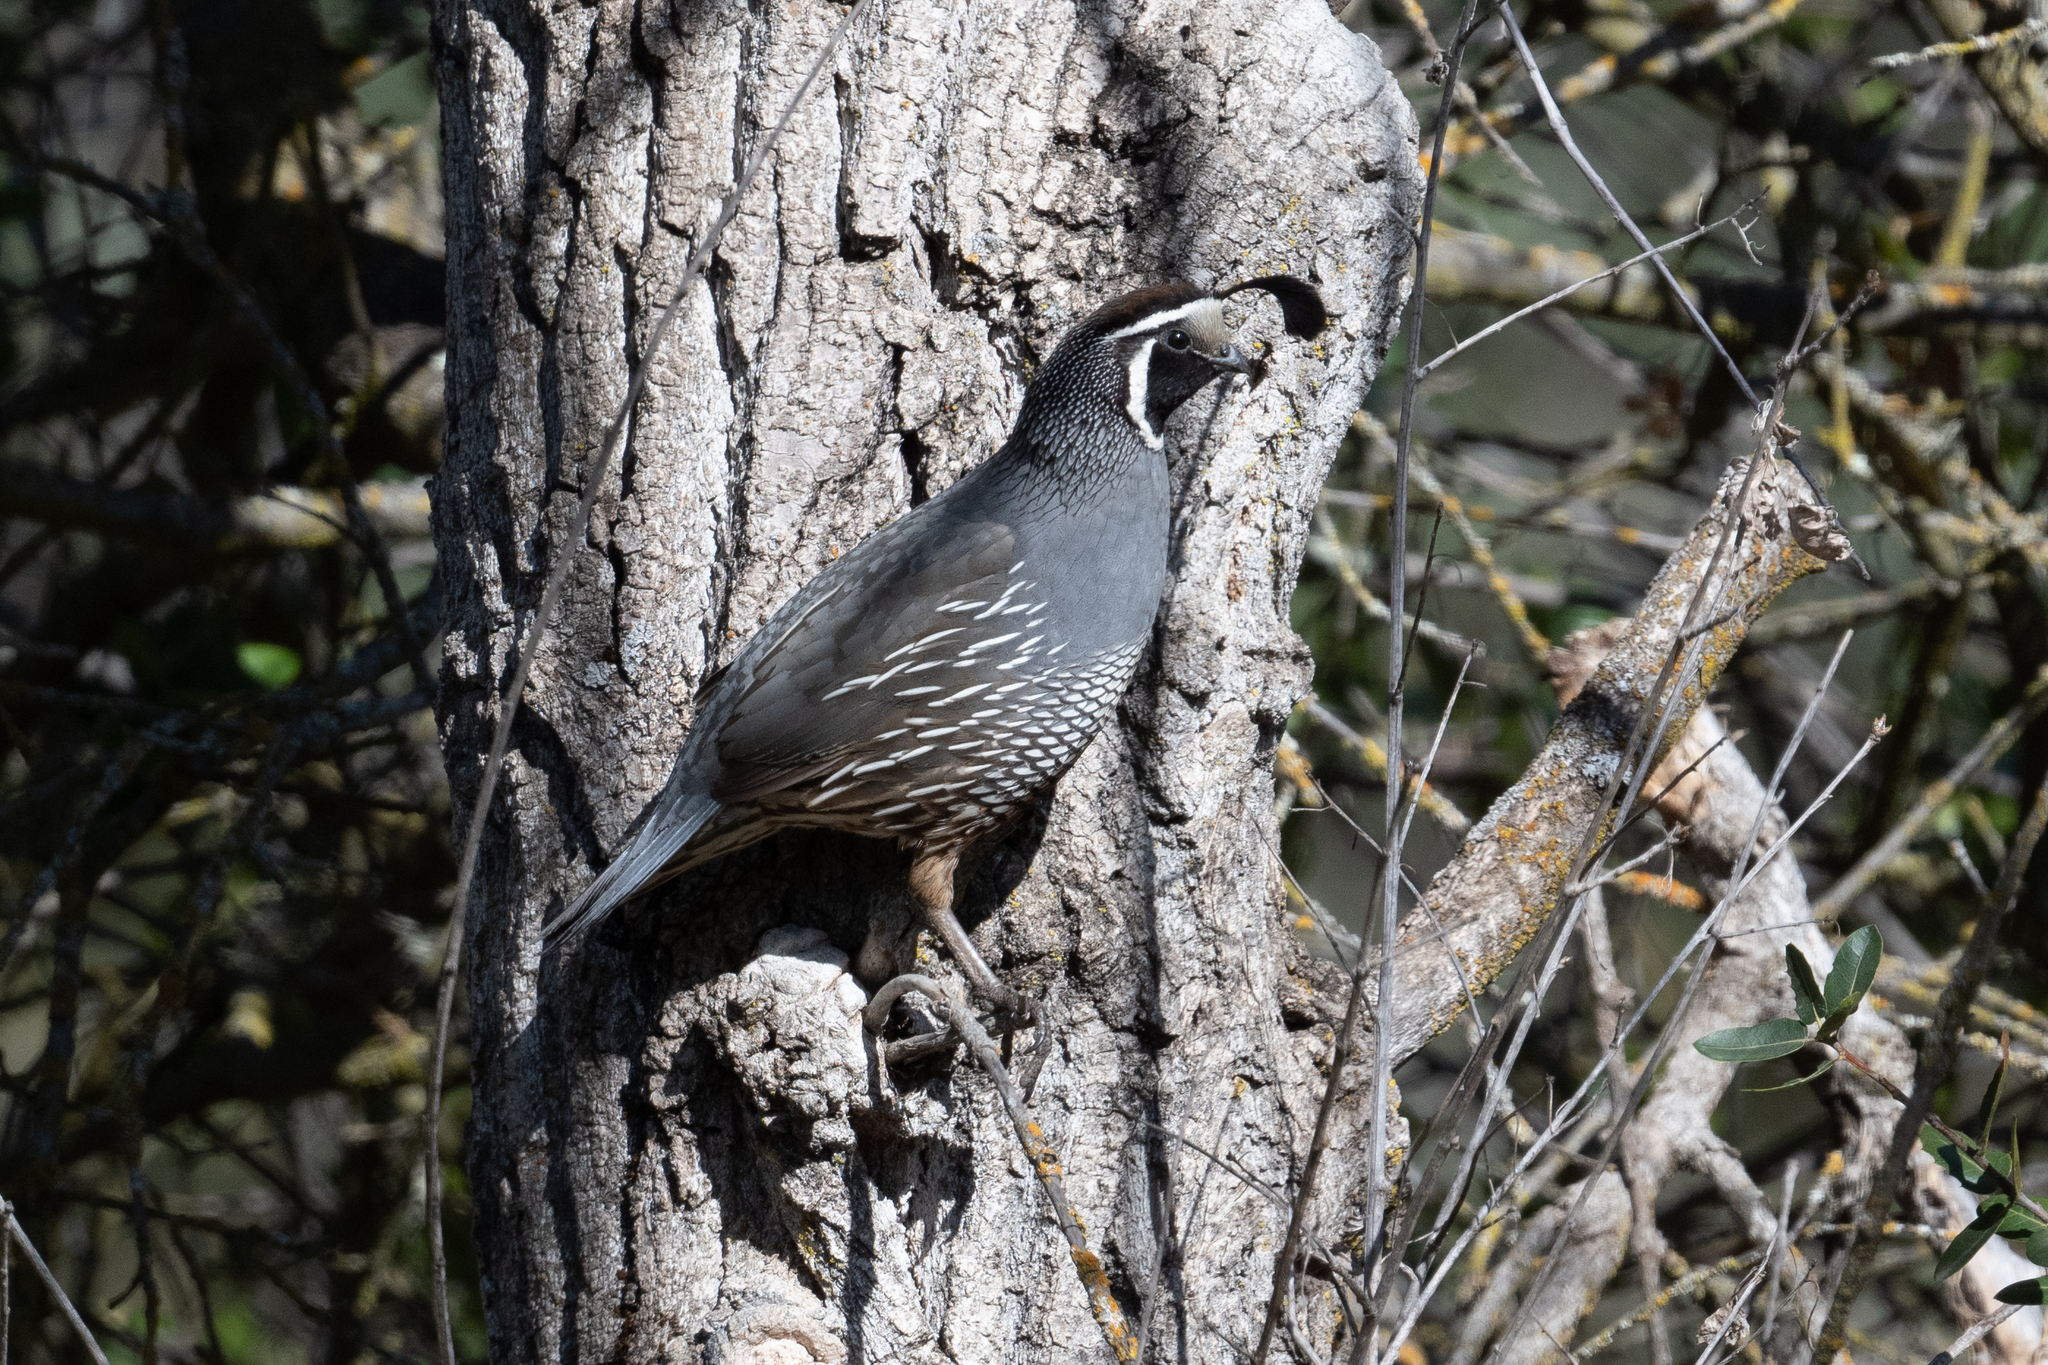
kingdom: Animalia
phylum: Chordata
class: Aves
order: Galliformes
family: Odontophoridae
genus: Callipepla
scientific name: Callipepla californica
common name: California quail
